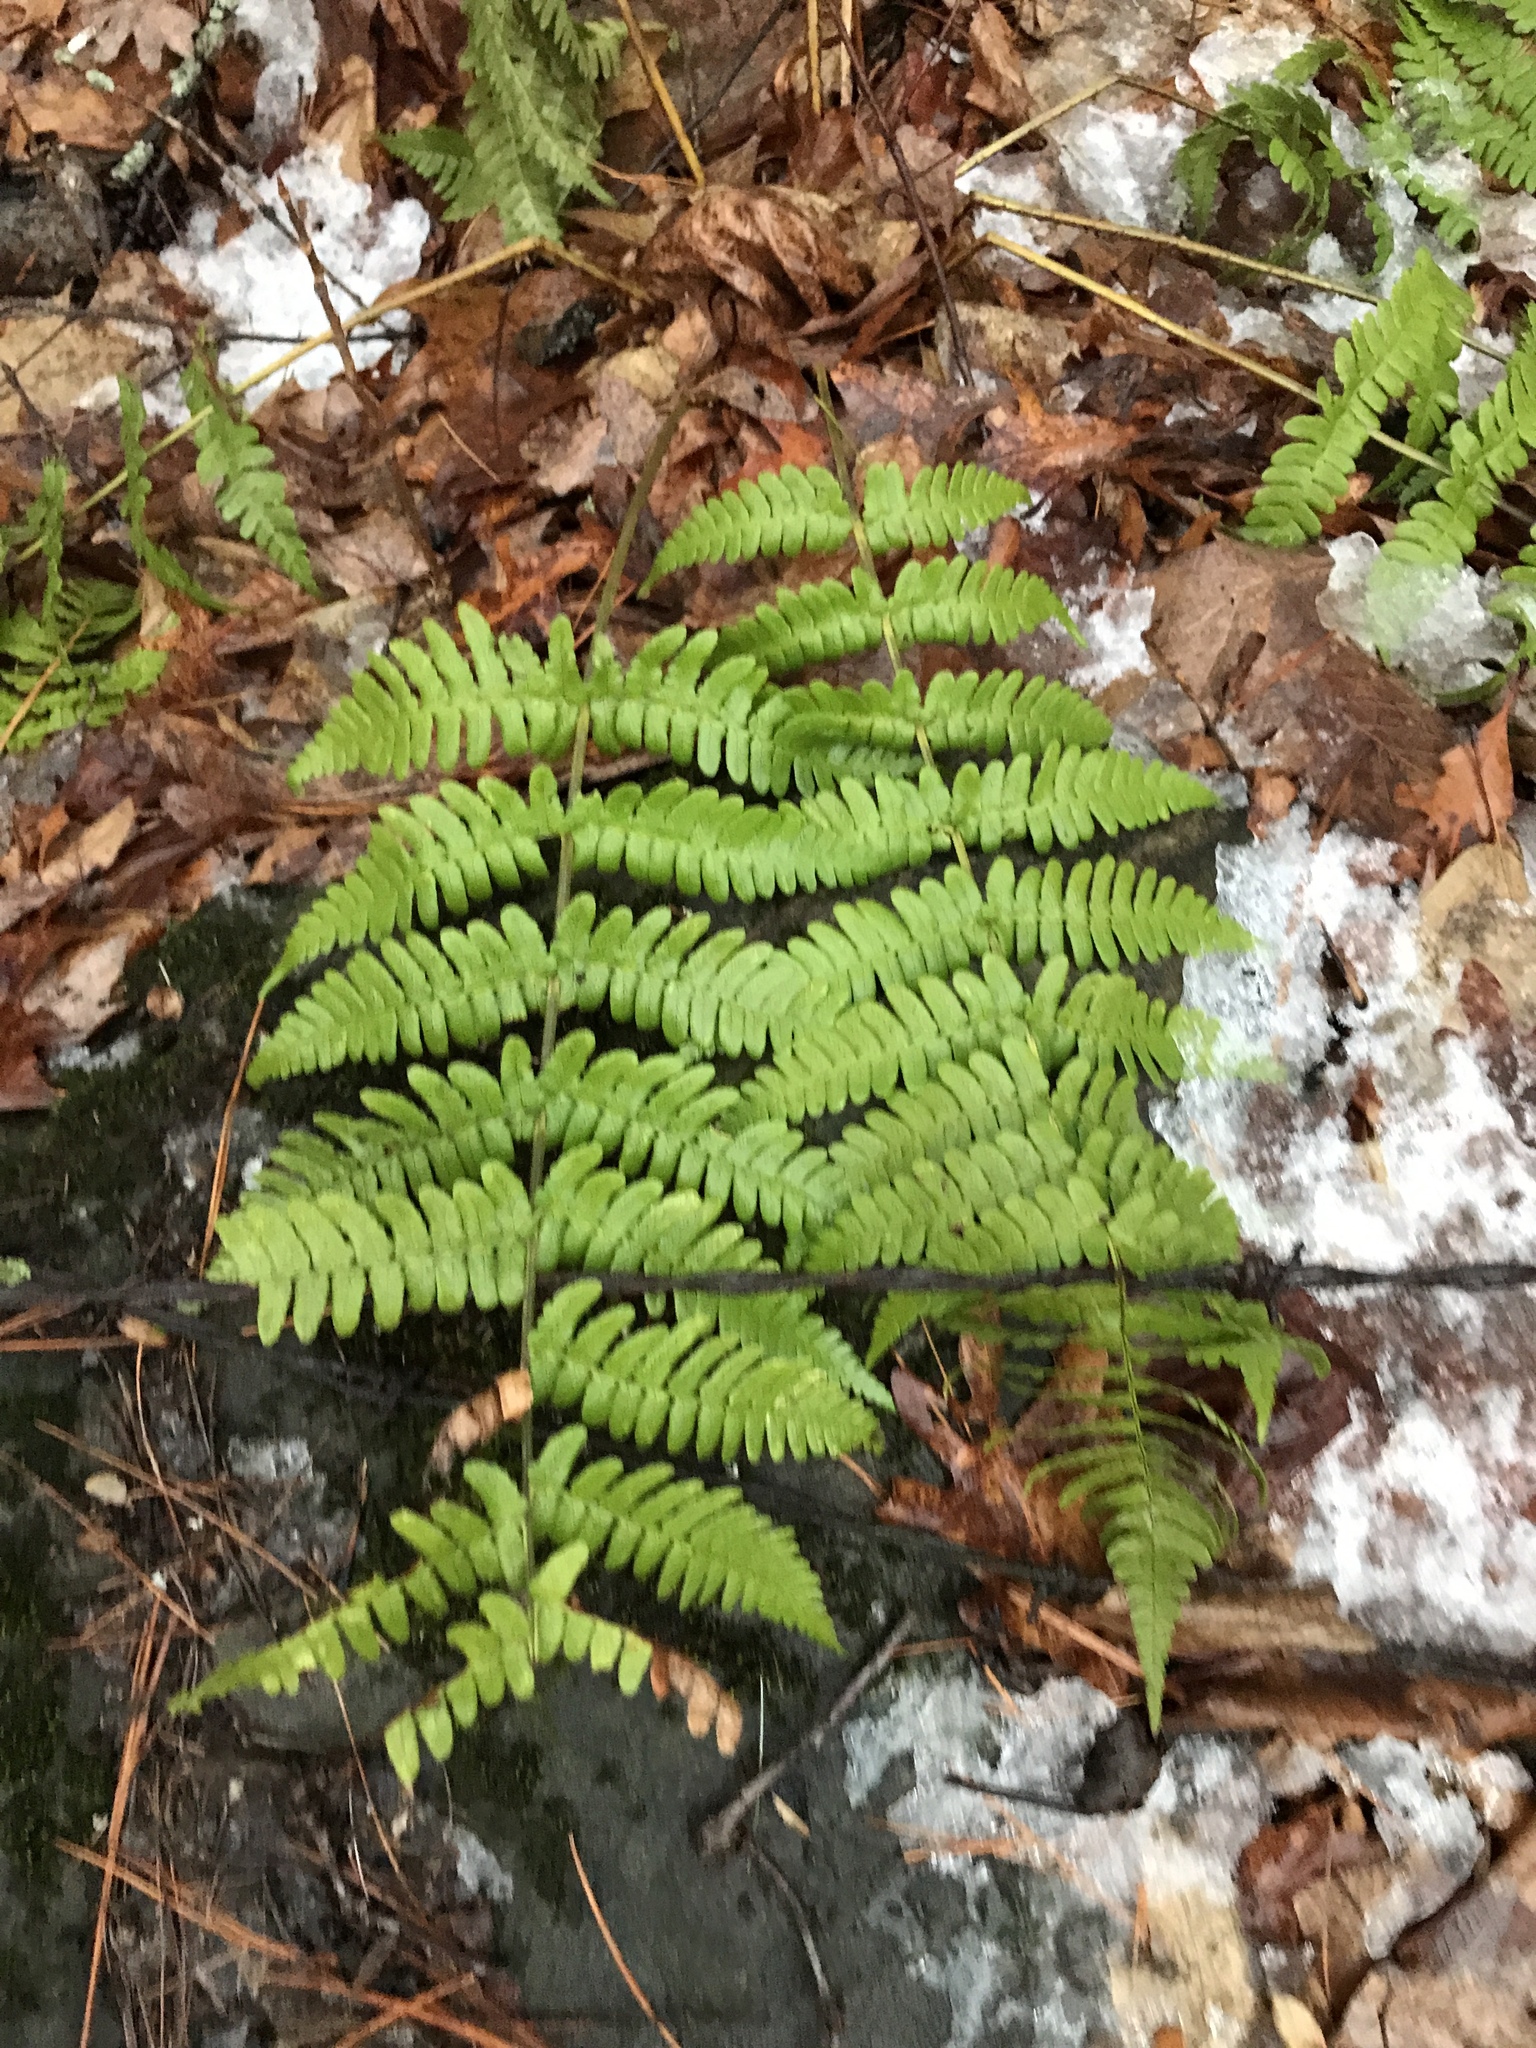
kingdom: Plantae
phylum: Tracheophyta
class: Polypodiopsida
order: Polypodiales
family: Dryopteridaceae
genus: Dryopteris
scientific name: Dryopteris marginalis
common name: Marginal wood fern
